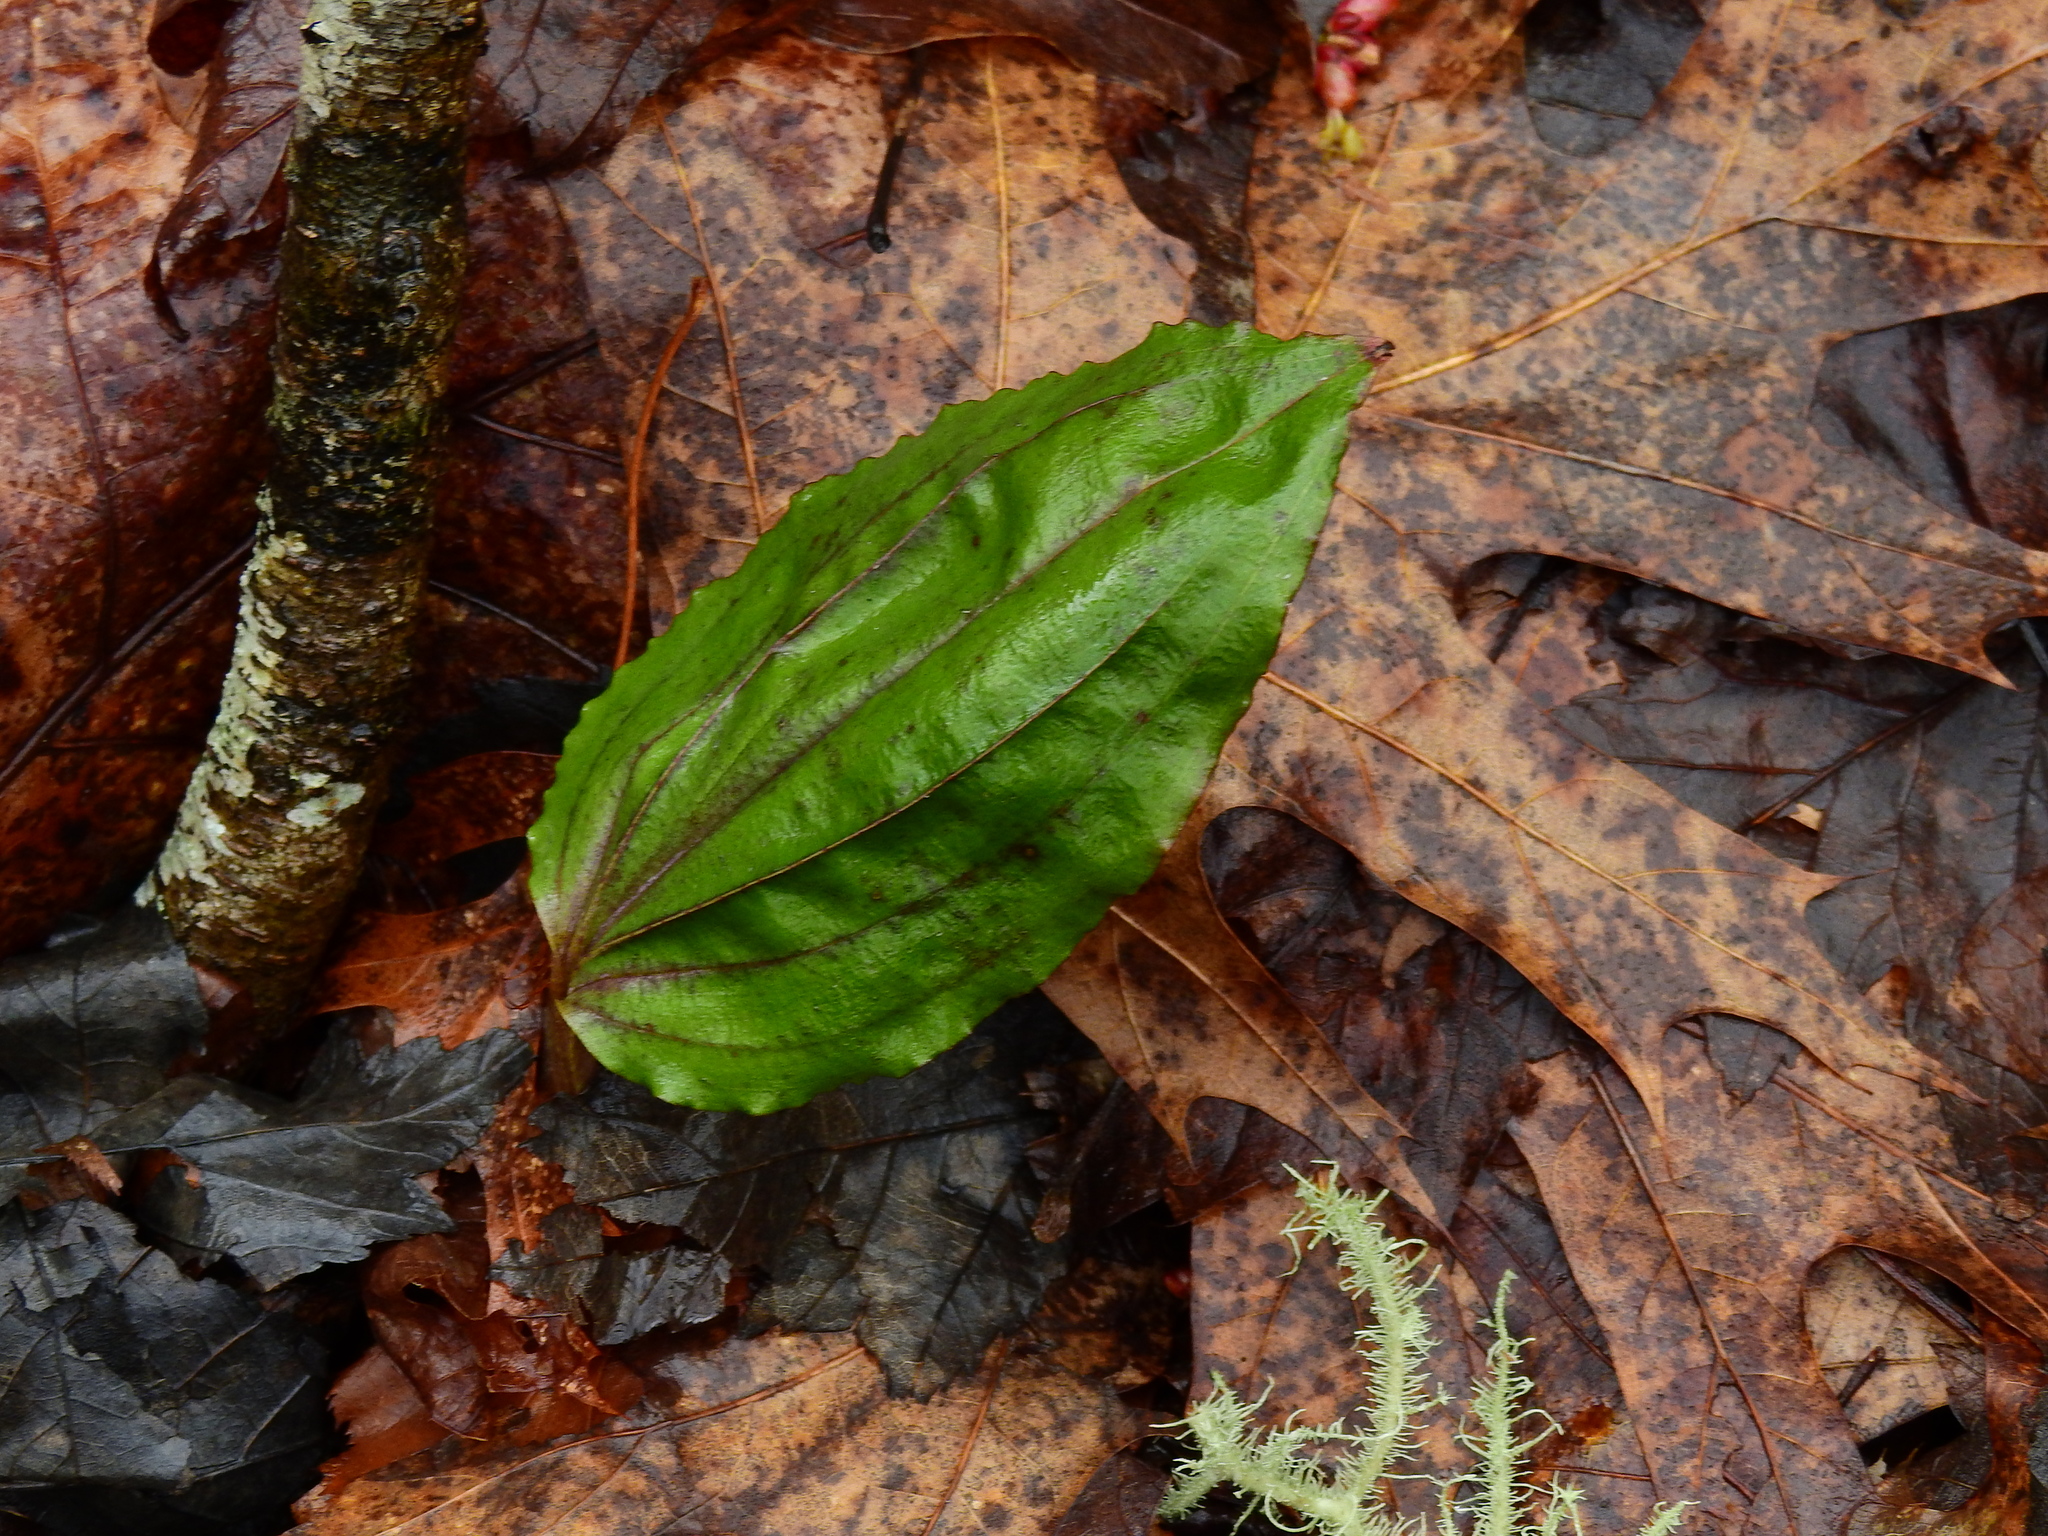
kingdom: Plantae
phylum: Tracheophyta
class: Liliopsida
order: Asparagales
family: Orchidaceae
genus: Tipularia
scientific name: Tipularia discolor
